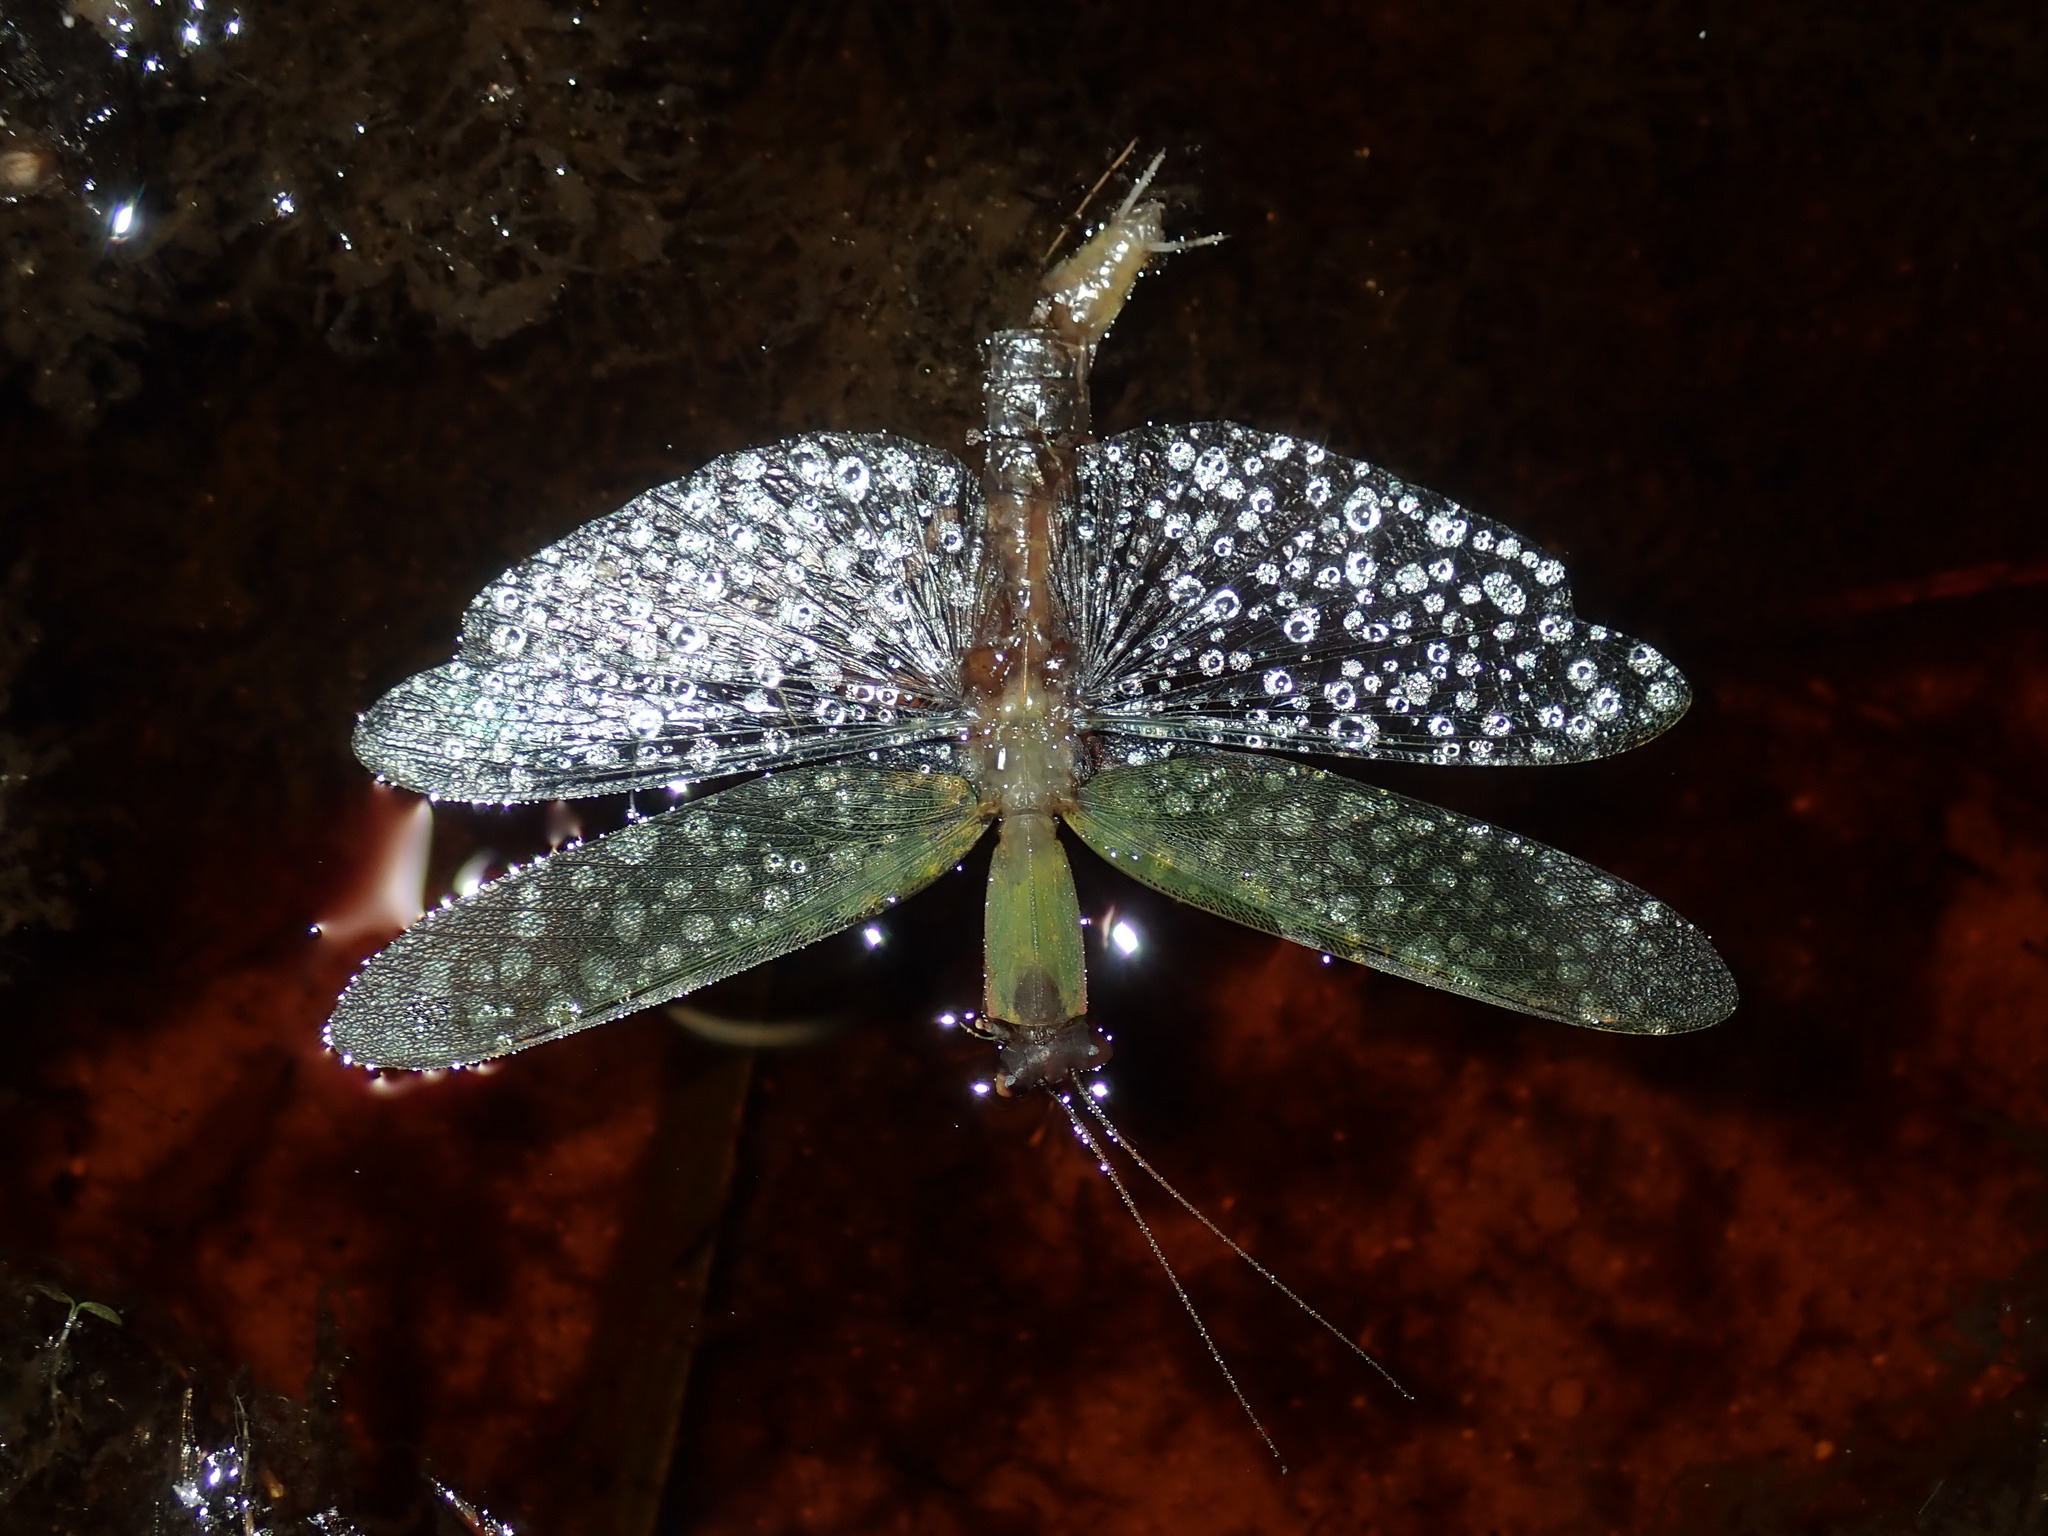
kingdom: Animalia
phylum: Arthropoda
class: Insecta
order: Mantodea
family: Mantidae
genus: Orthodera
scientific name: Orthodera ministralis
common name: Mantis
